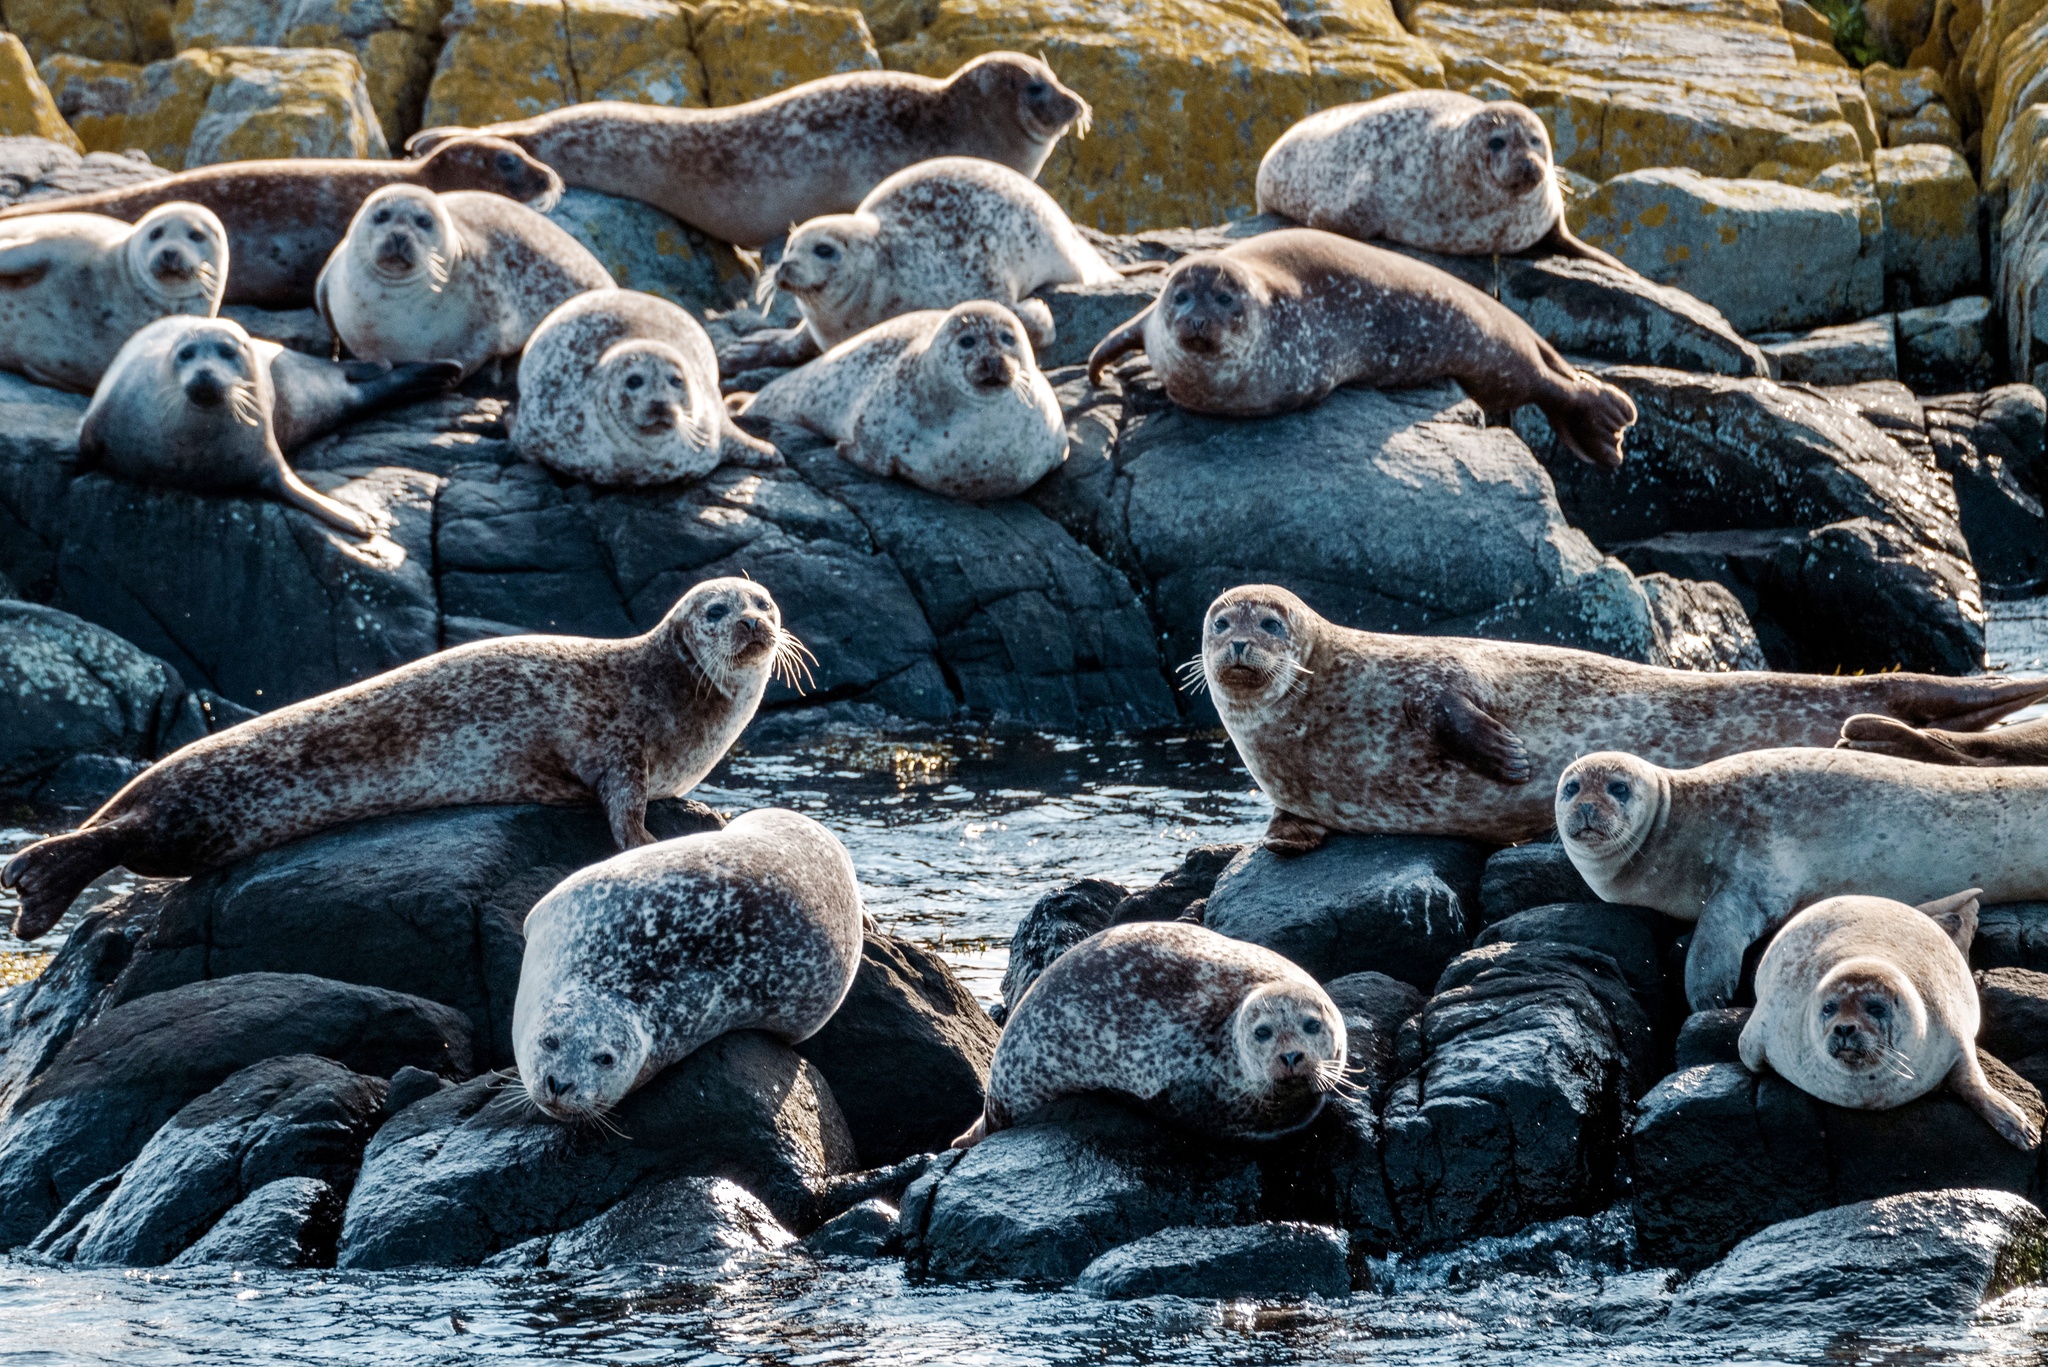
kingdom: Animalia
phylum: Chordata
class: Mammalia
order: Carnivora
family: Phocidae
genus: Phoca
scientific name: Phoca vitulina
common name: Harbor seal
